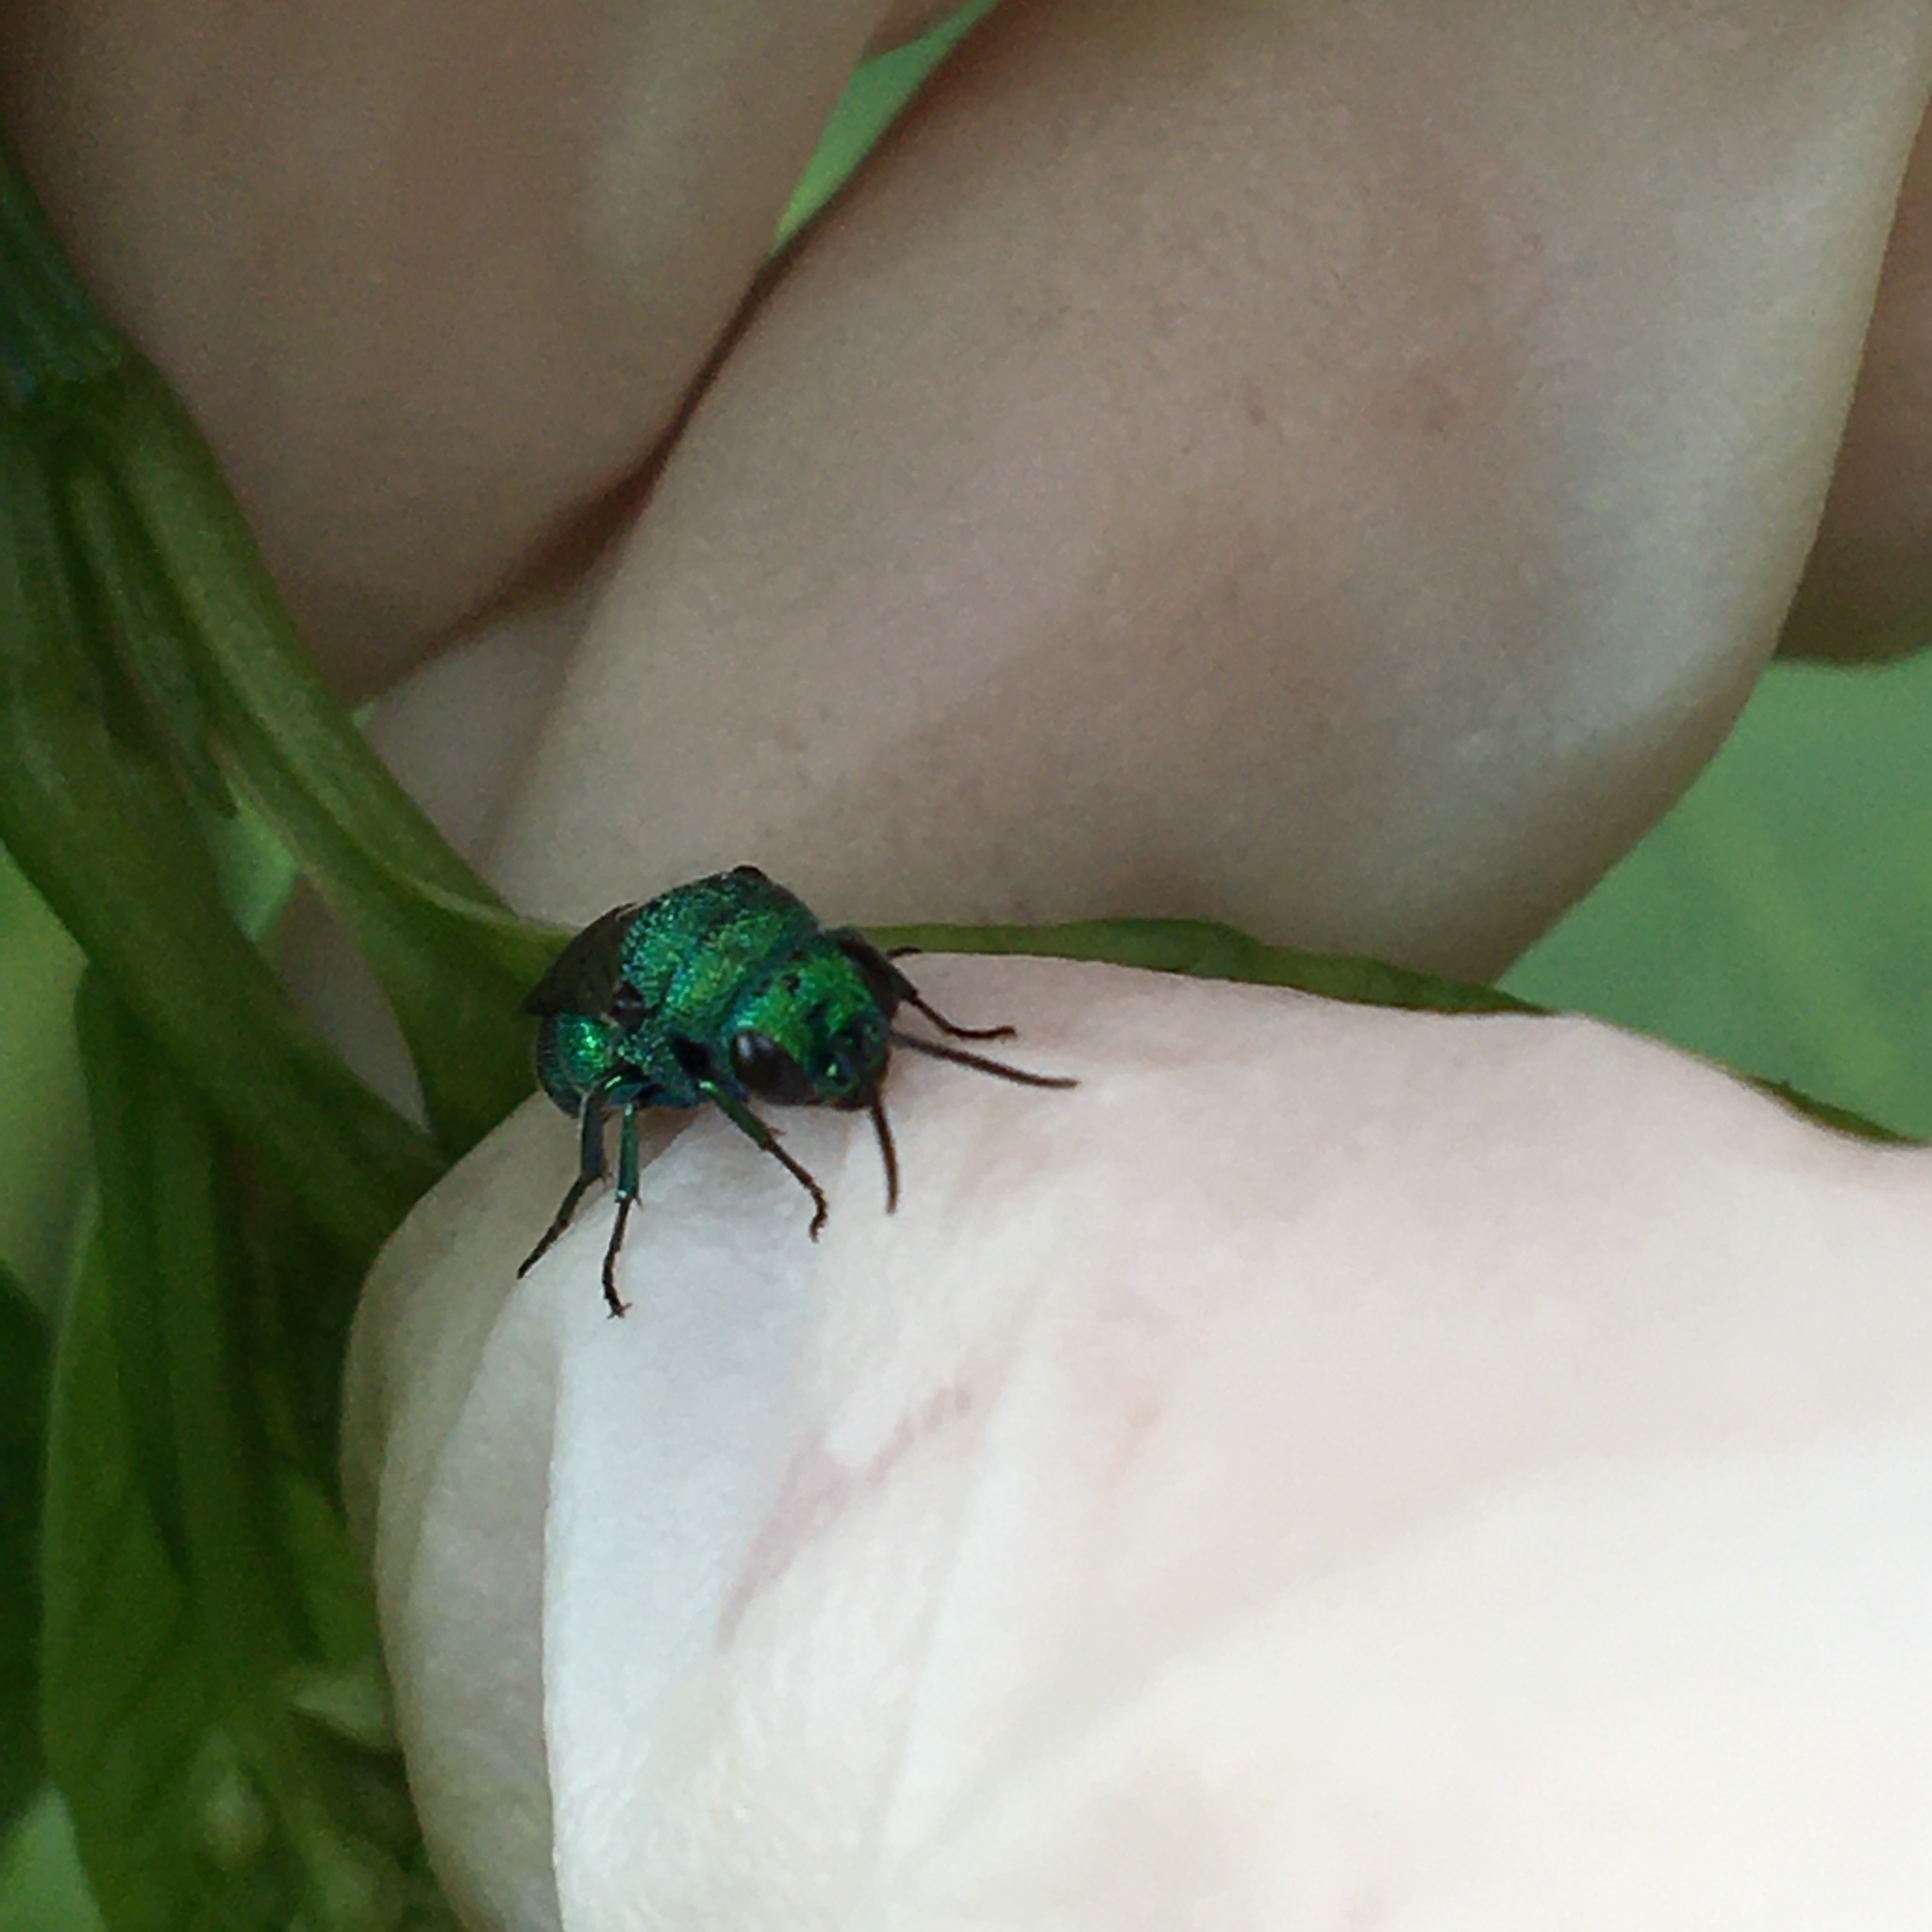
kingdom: Animalia
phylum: Arthropoda
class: Insecta
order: Hymenoptera
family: Chrysididae
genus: Holopyga
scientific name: Holopyga
